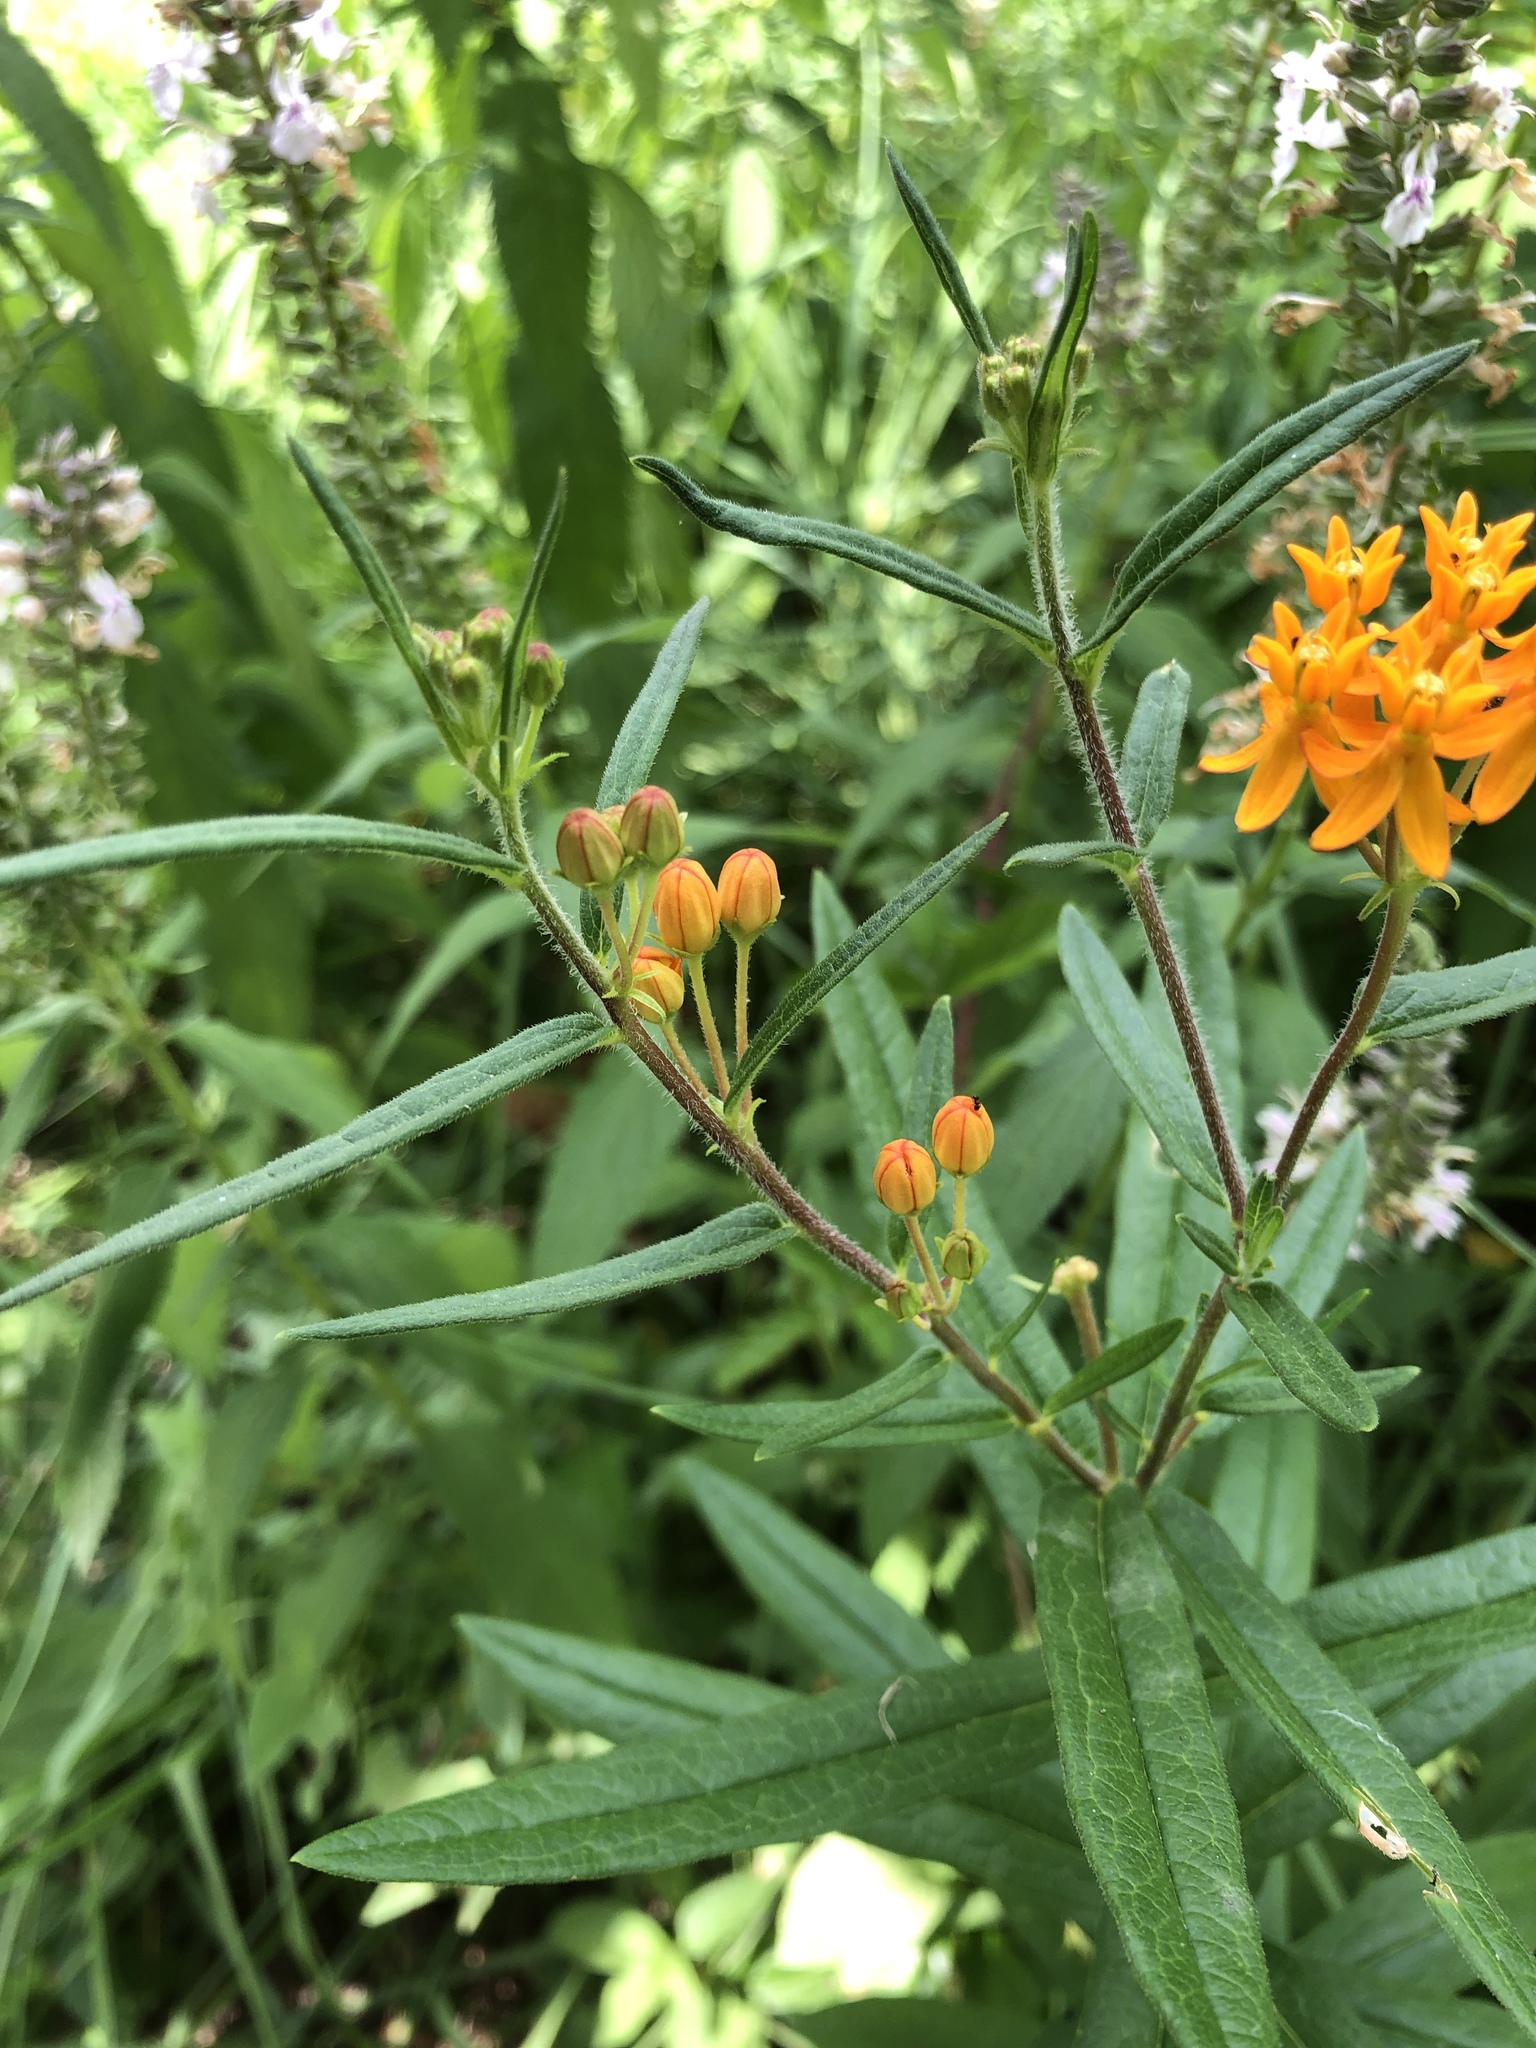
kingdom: Plantae
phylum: Tracheophyta
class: Magnoliopsida
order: Gentianales
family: Apocynaceae
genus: Asclepias
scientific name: Asclepias tuberosa
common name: Butterfly milkweed
